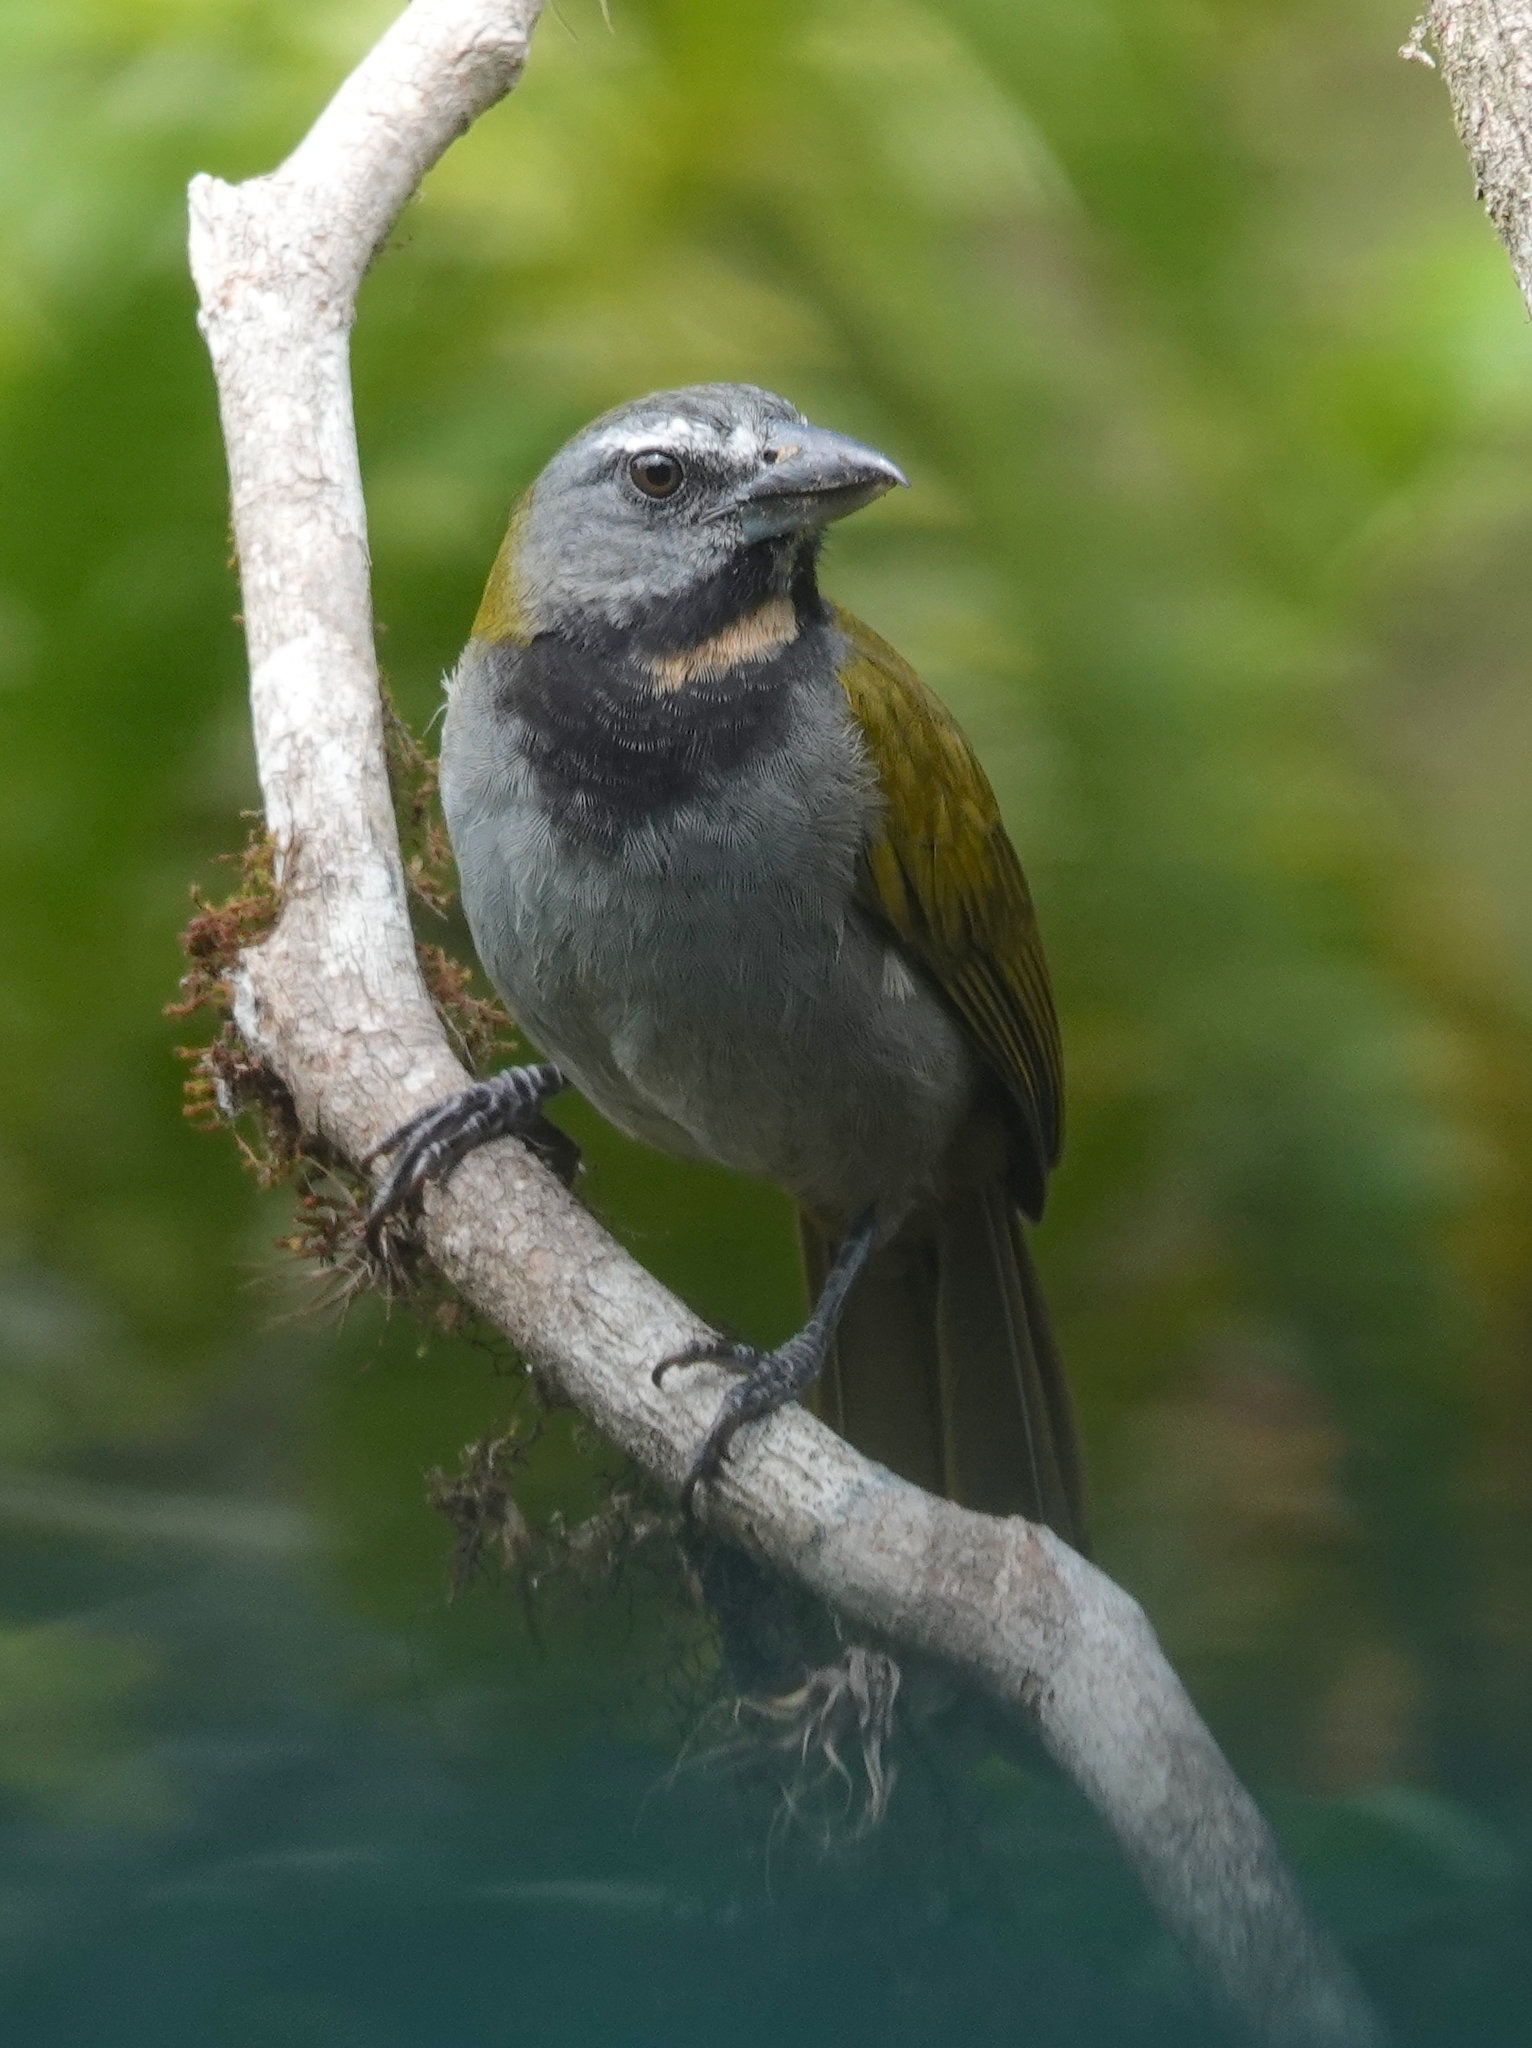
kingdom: Animalia
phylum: Chordata
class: Aves
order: Passeriformes
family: Thraupidae
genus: Saltator
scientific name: Saltator maximus
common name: Buff-throated saltator
